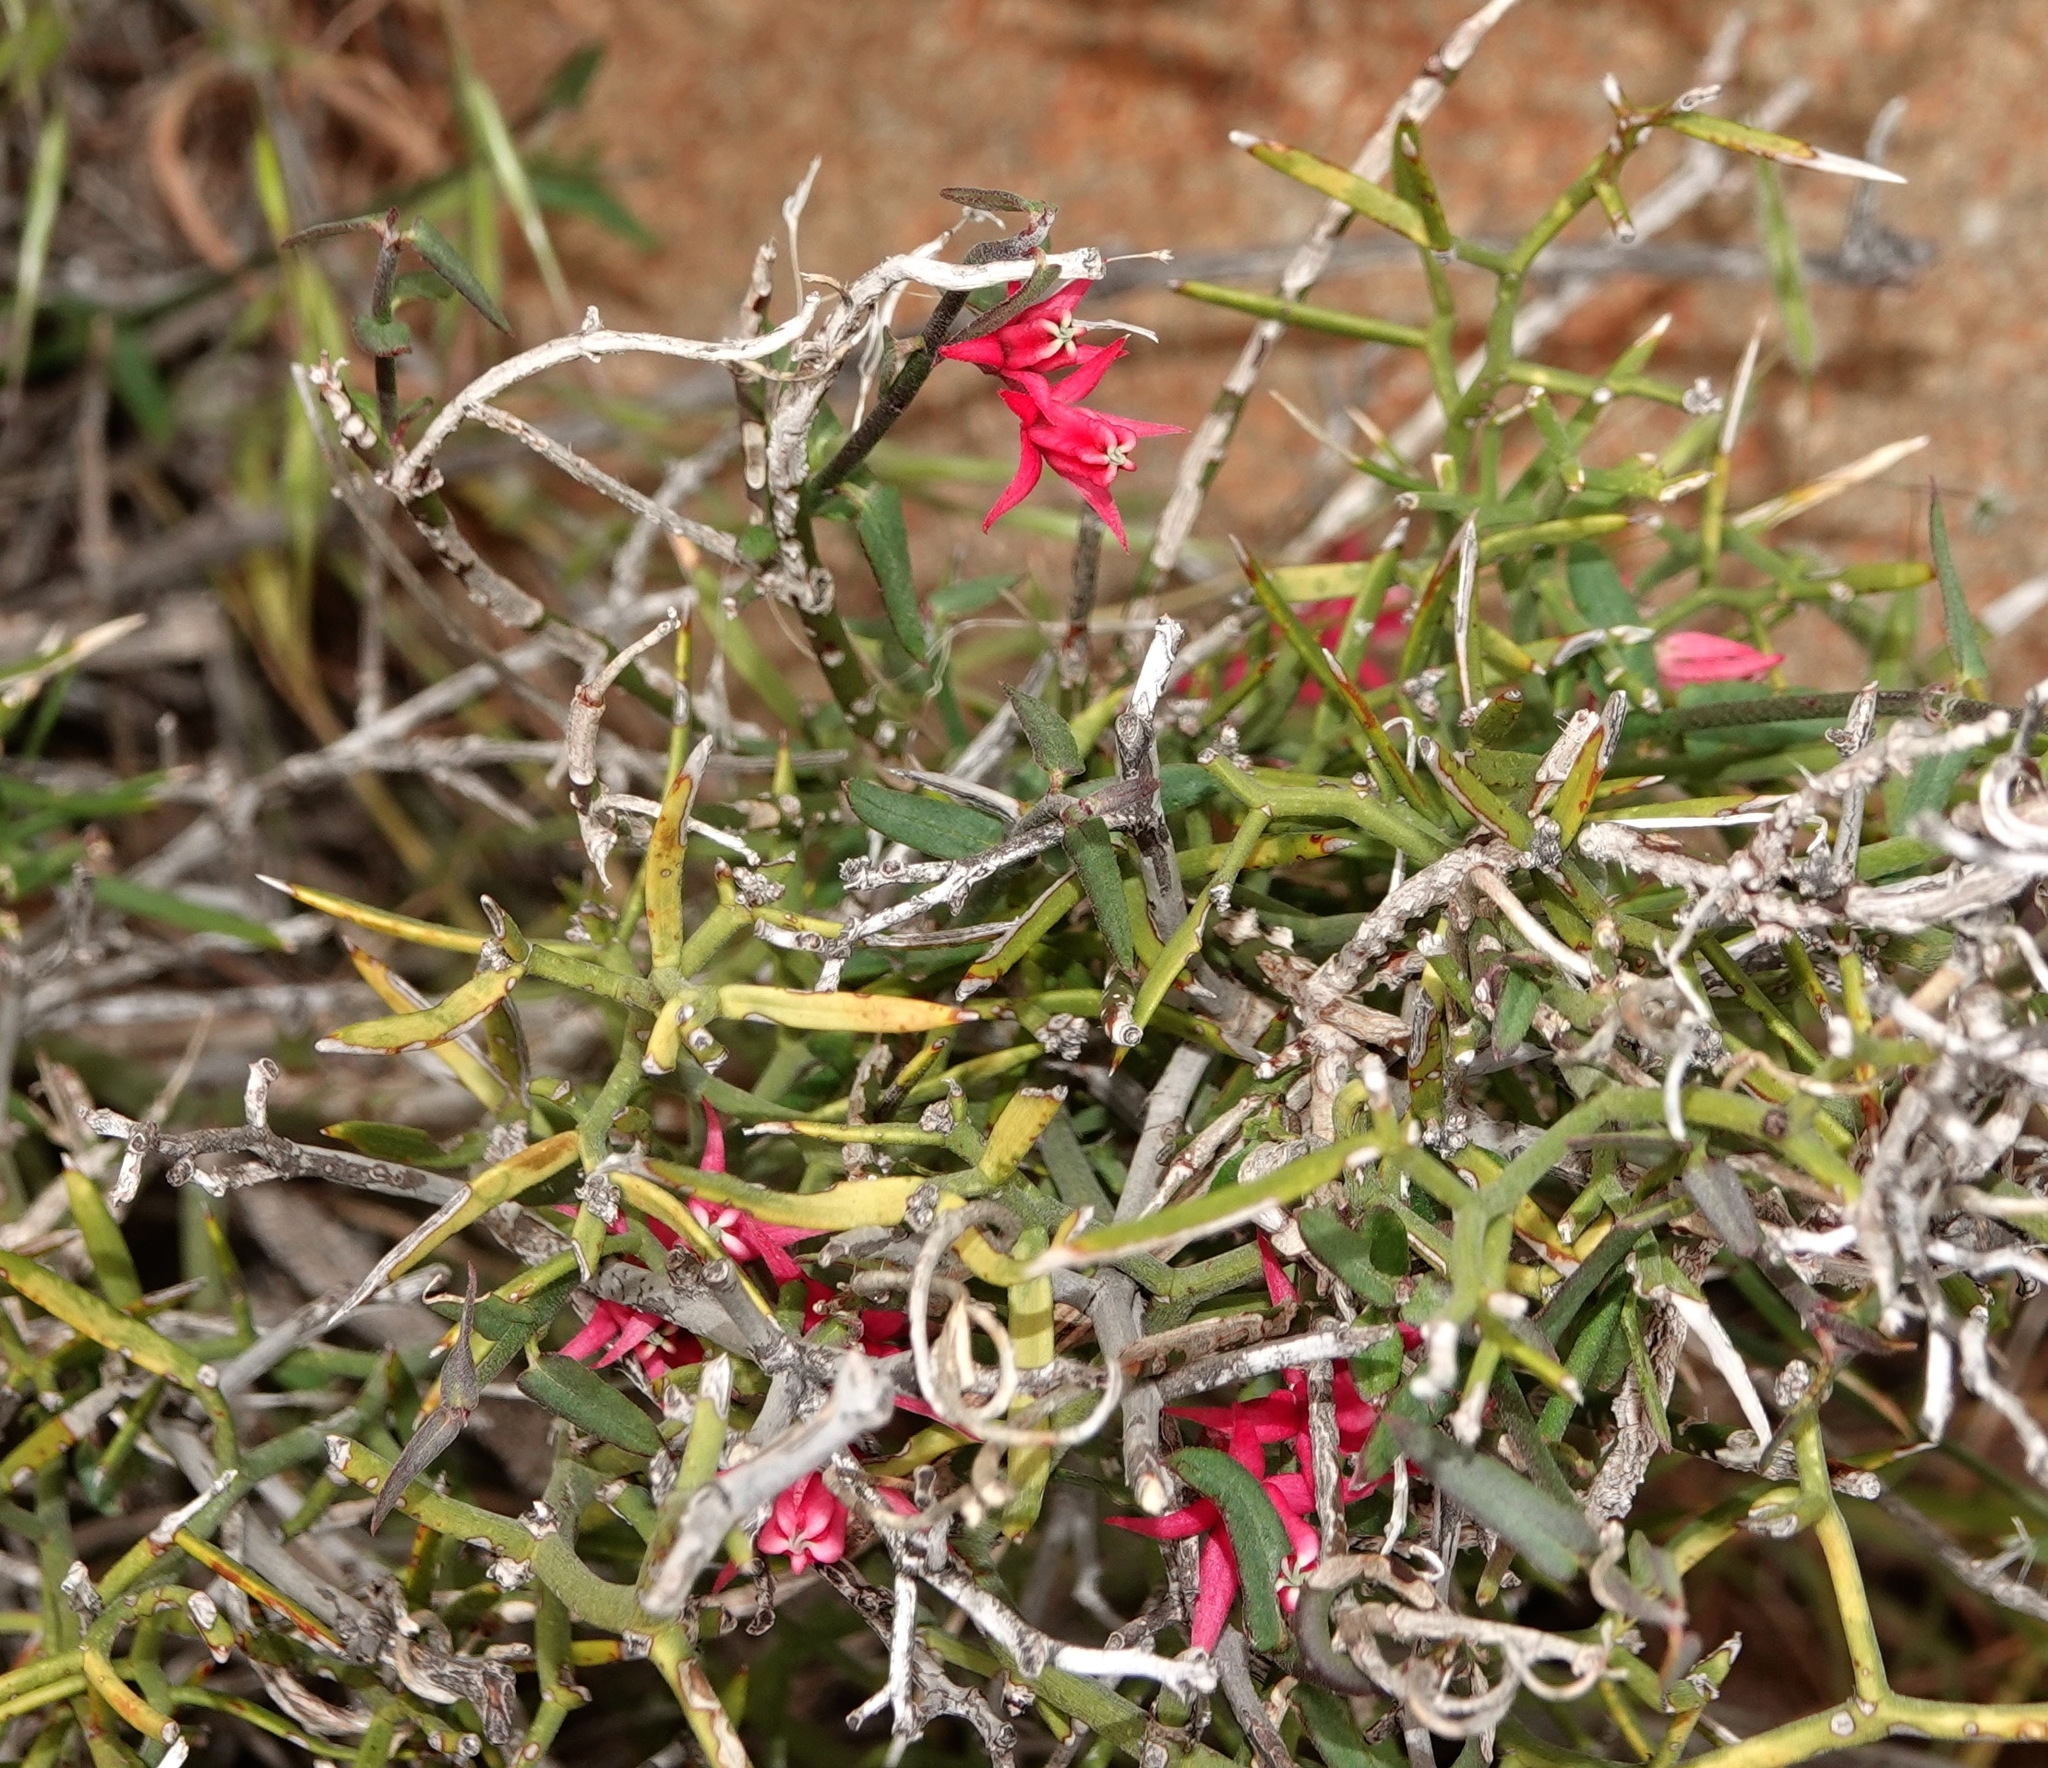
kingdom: Plantae
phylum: Tracheophyta
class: Magnoliopsida
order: Gentianales
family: Apocynaceae
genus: Microloma
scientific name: Microloma sagittatum
